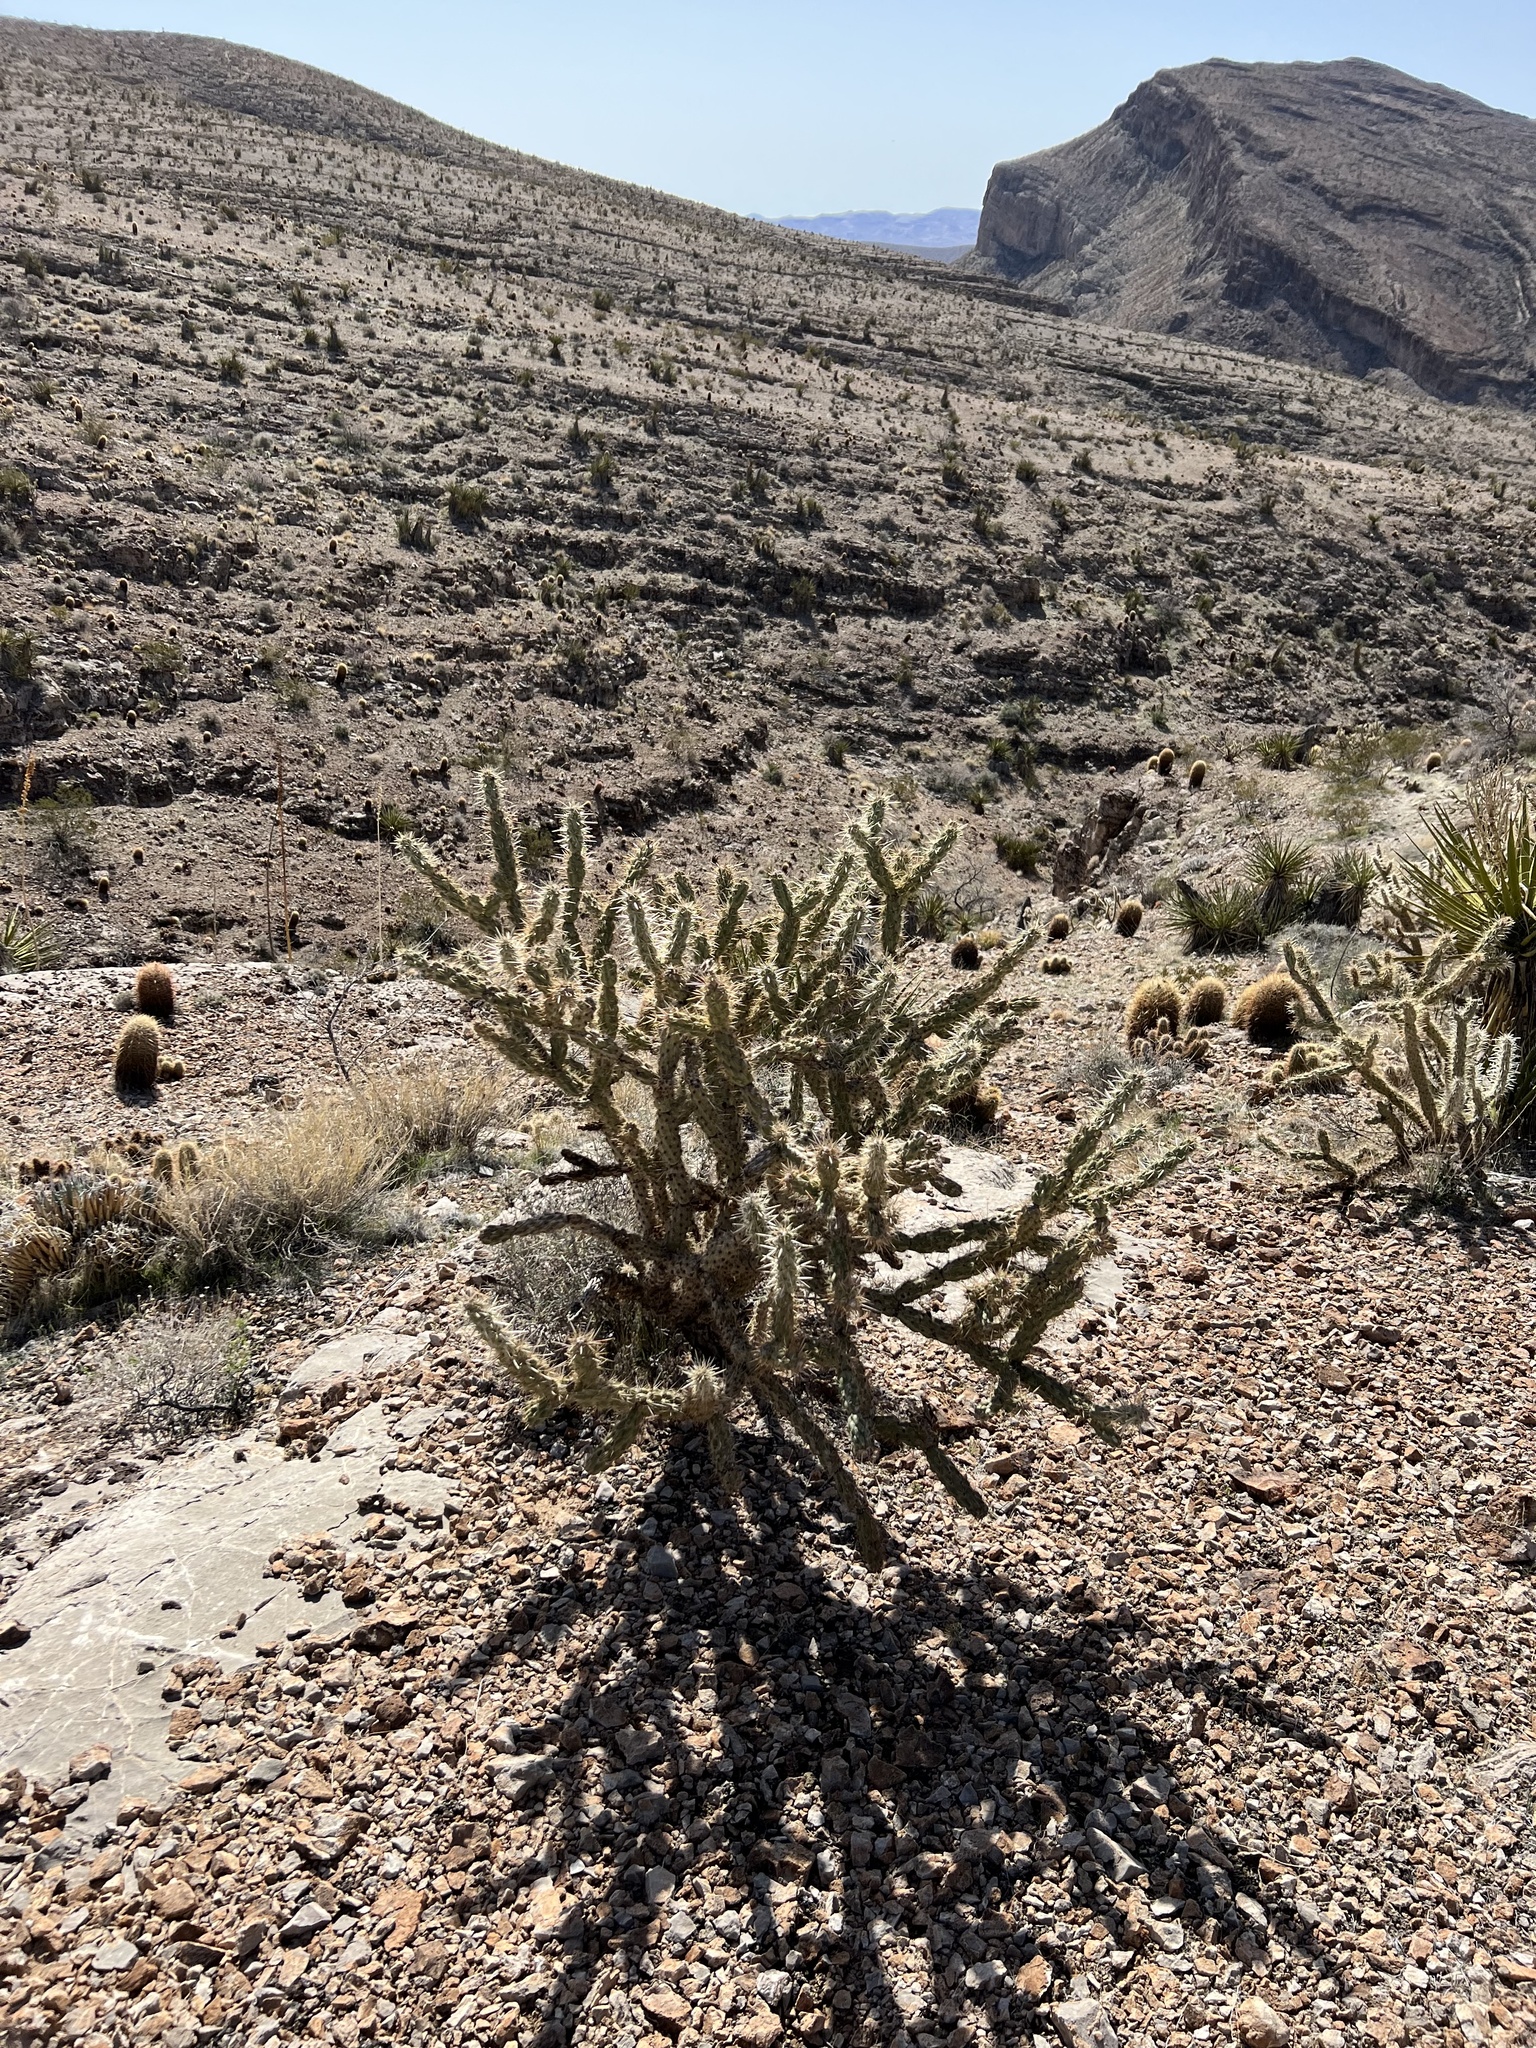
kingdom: Plantae
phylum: Tracheophyta
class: Magnoliopsida
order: Caryophyllales
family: Cactaceae
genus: Cylindropuntia
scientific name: Cylindropuntia acanthocarpa
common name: Buckhorn cholla
